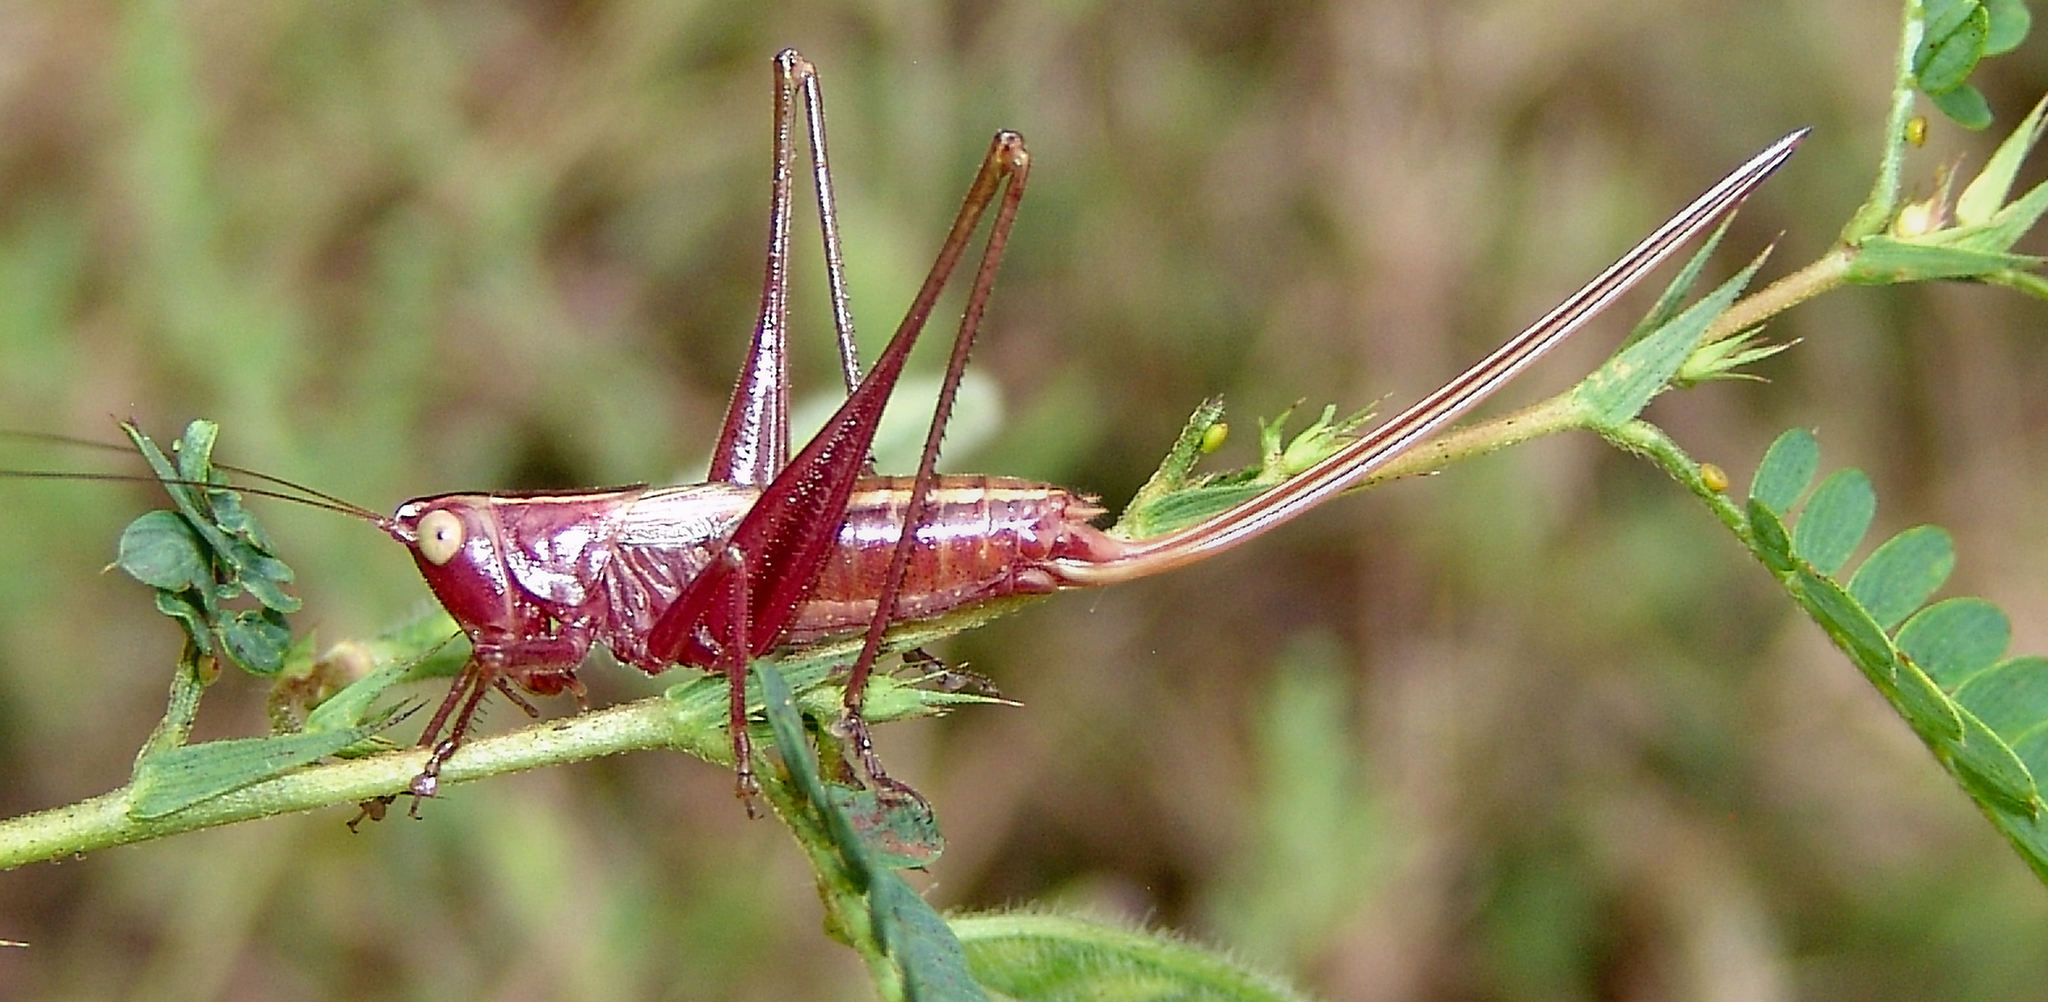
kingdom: Animalia
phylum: Arthropoda
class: Insecta
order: Orthoptera
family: Tettigoniidae
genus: Conocephalus
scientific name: Conocephalus strictus
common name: Straight-lanced katydid
